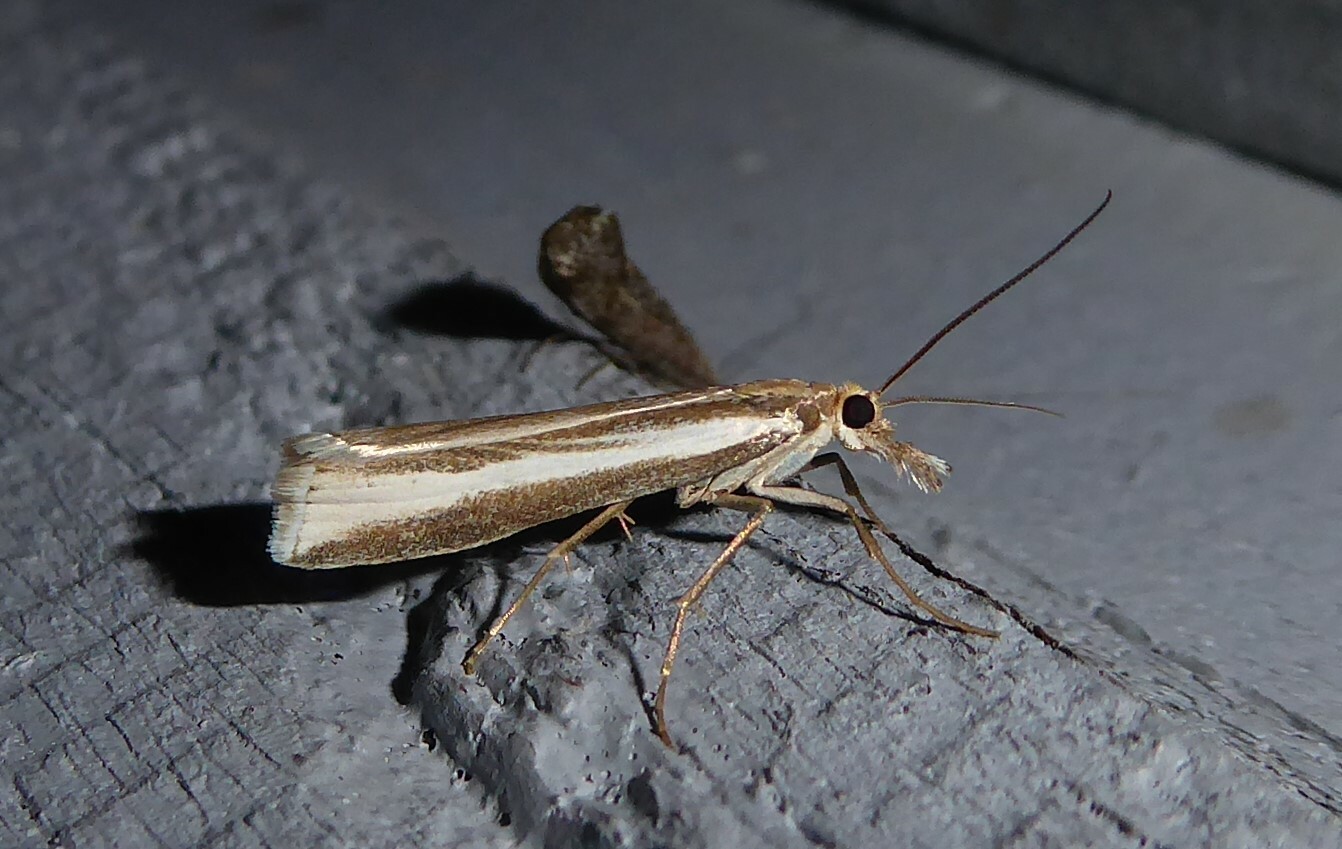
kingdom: Animalia
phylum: Arthropoda
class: Insecta
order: Lepidoptera
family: Crambidae
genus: Orocrambus
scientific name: Orocrambus vittellus
